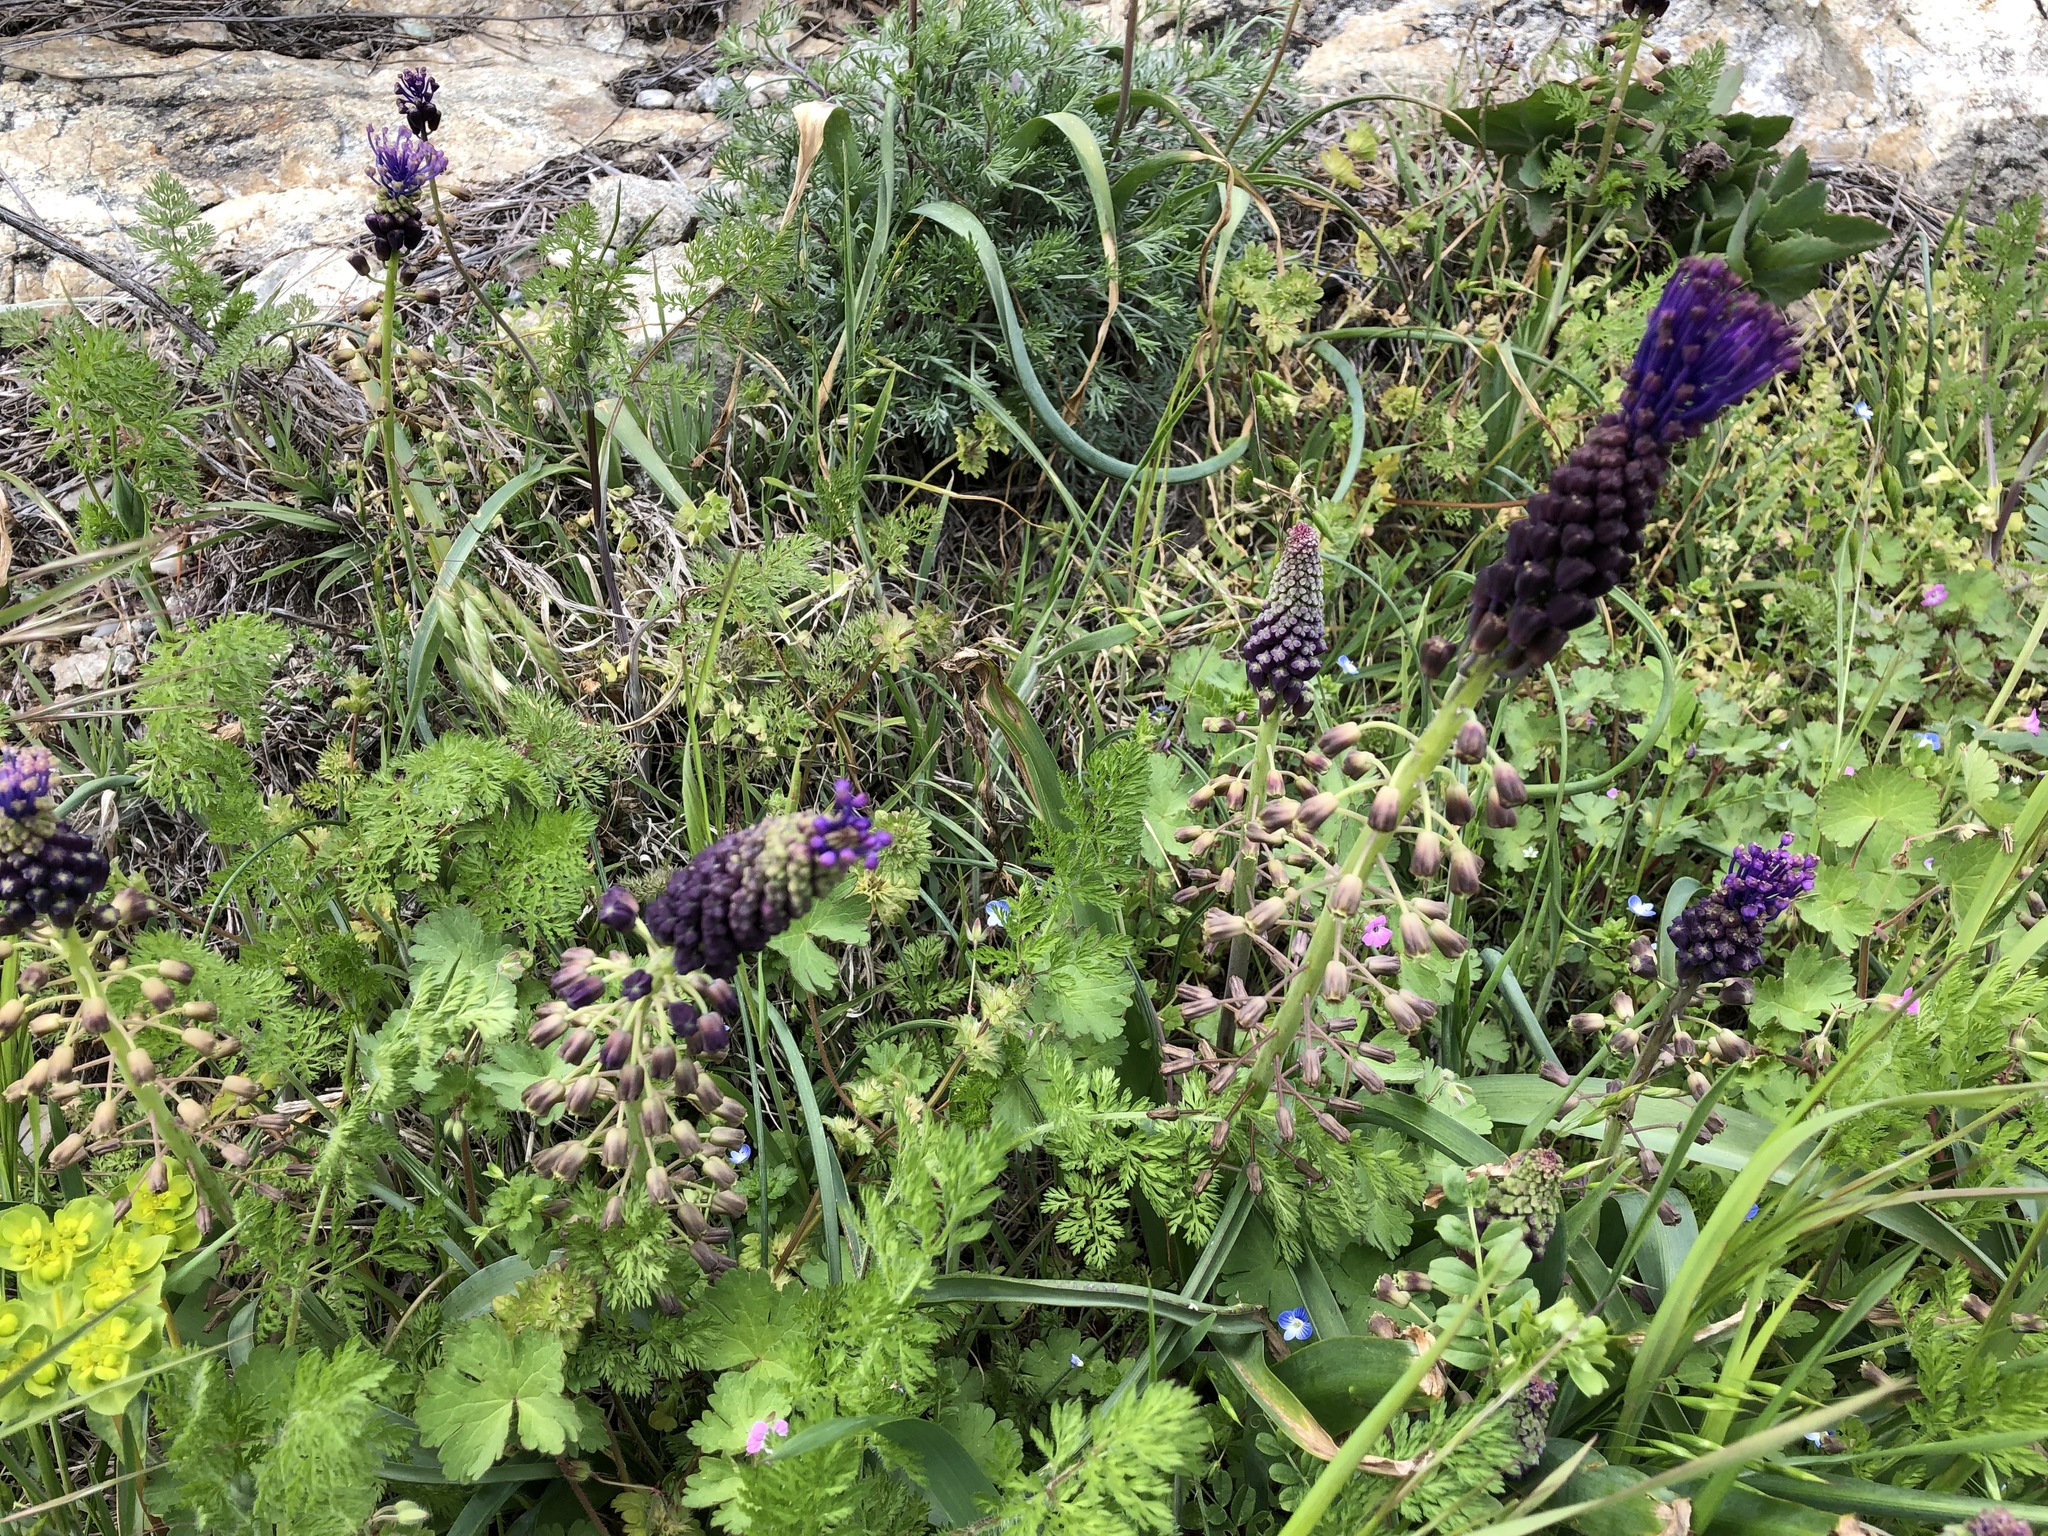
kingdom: Plantae
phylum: Tracheophyta
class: Liliopsida
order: Asparagales
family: Asparagaceae
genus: Muscari
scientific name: Muscari comosum
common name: Tassel hyacinth
